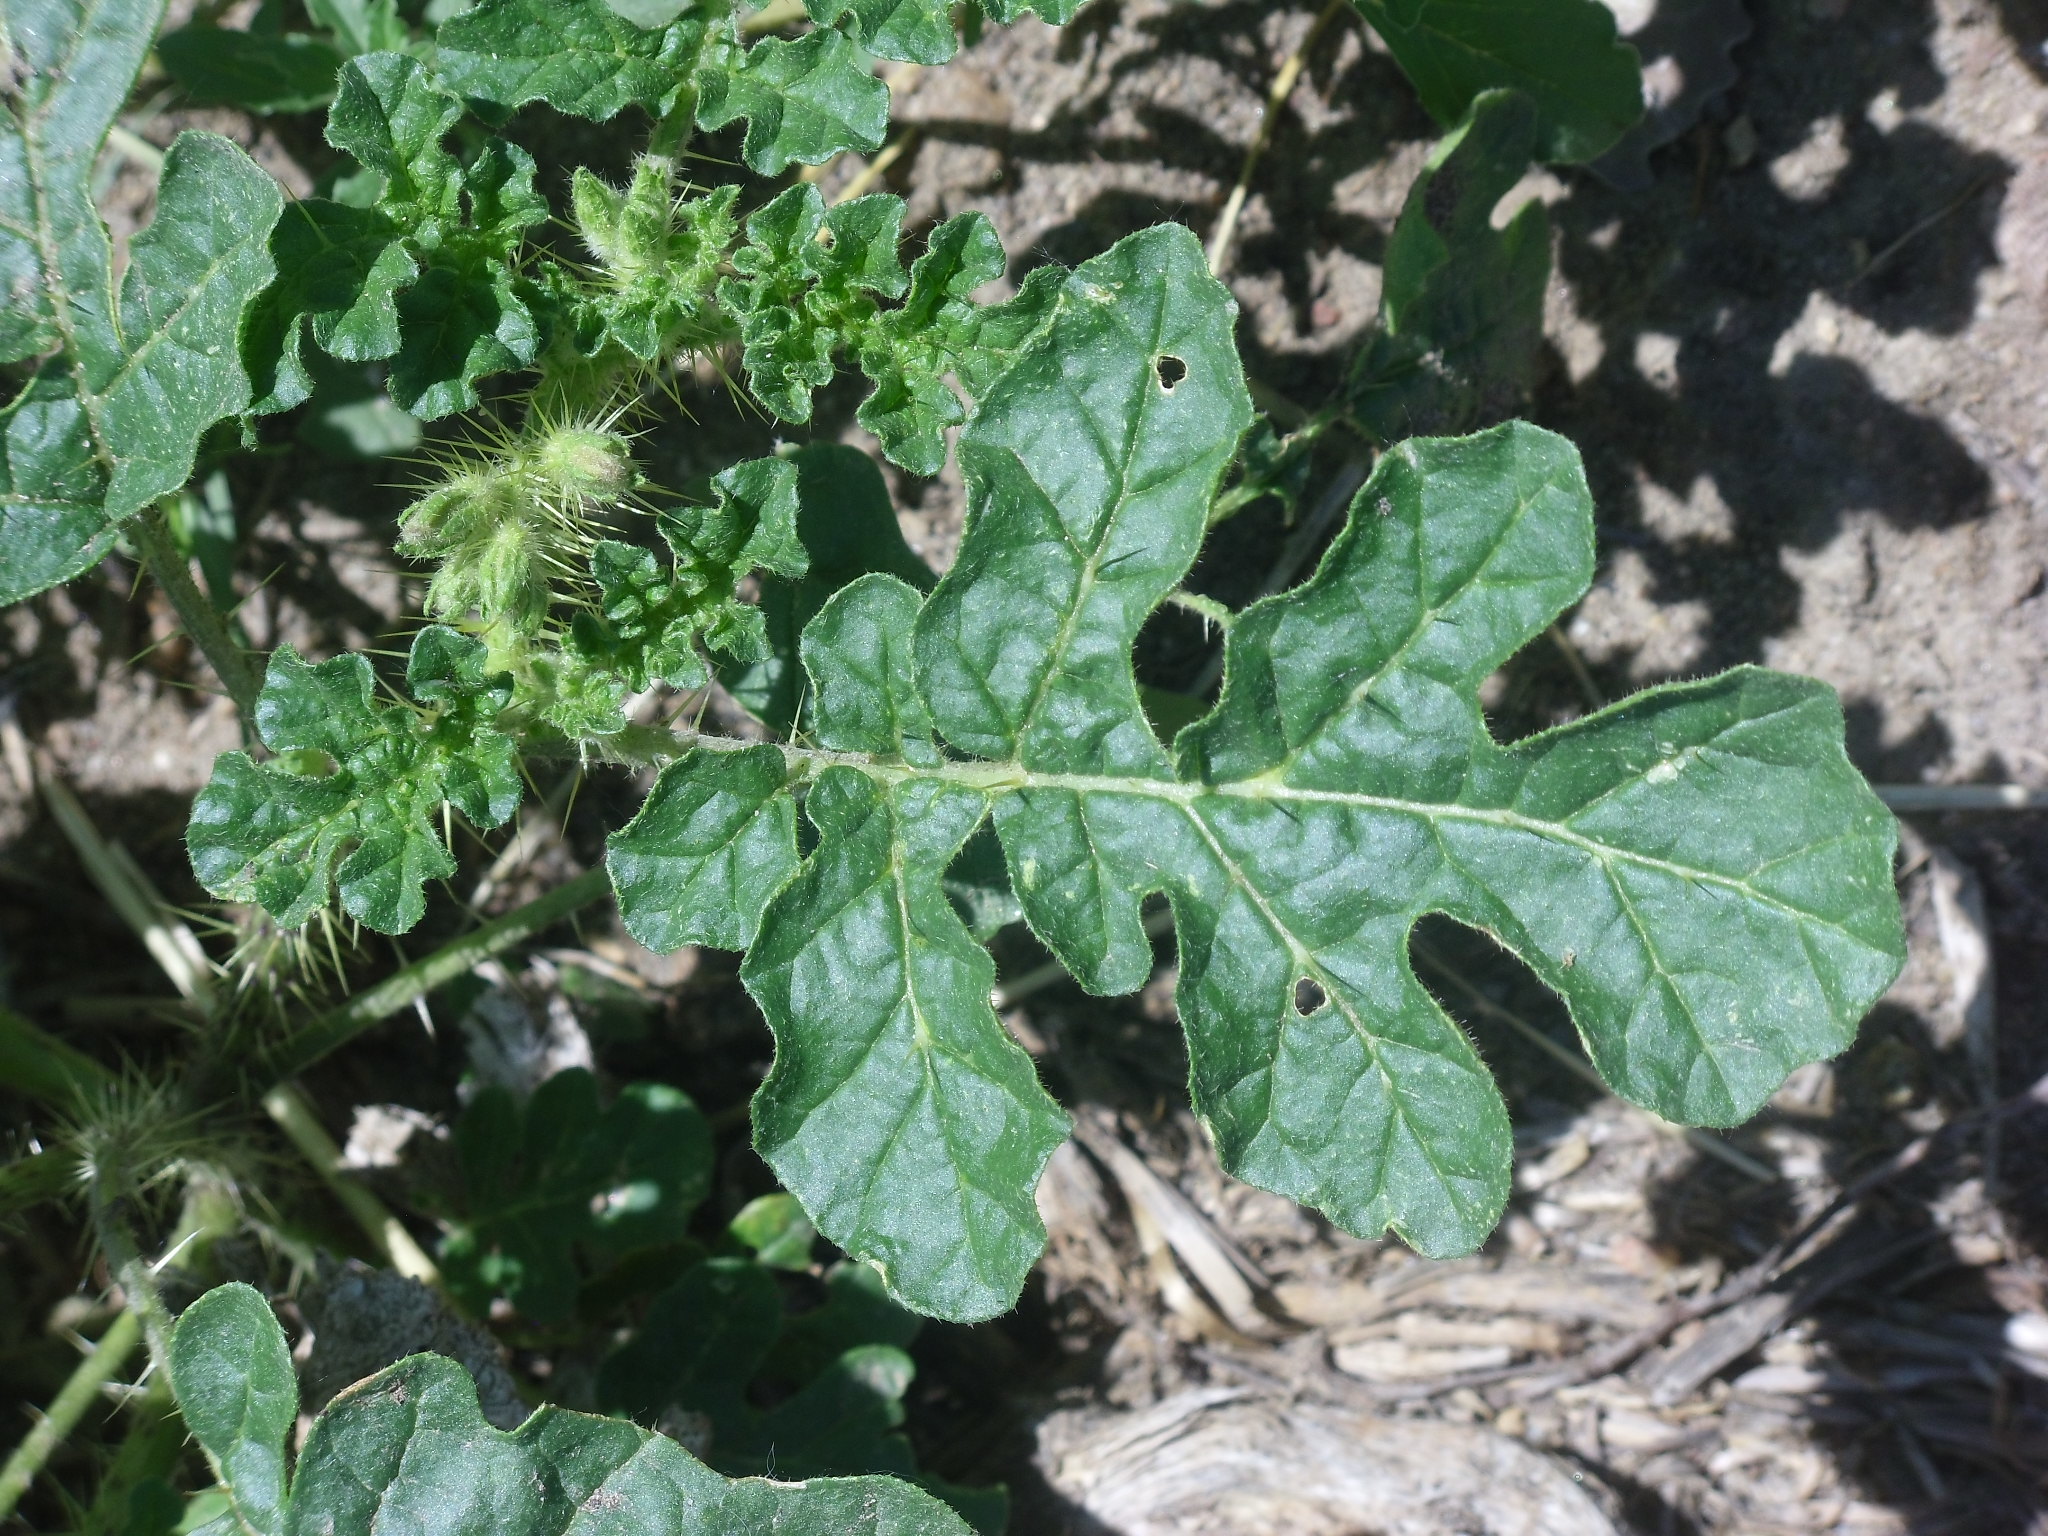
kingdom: Plantae
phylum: Tracheophyta
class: Magnoliopsida
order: Solanales
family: Solanaceae
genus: Solanum
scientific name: Solanum angustifolium
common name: Buffalobur nightshade
